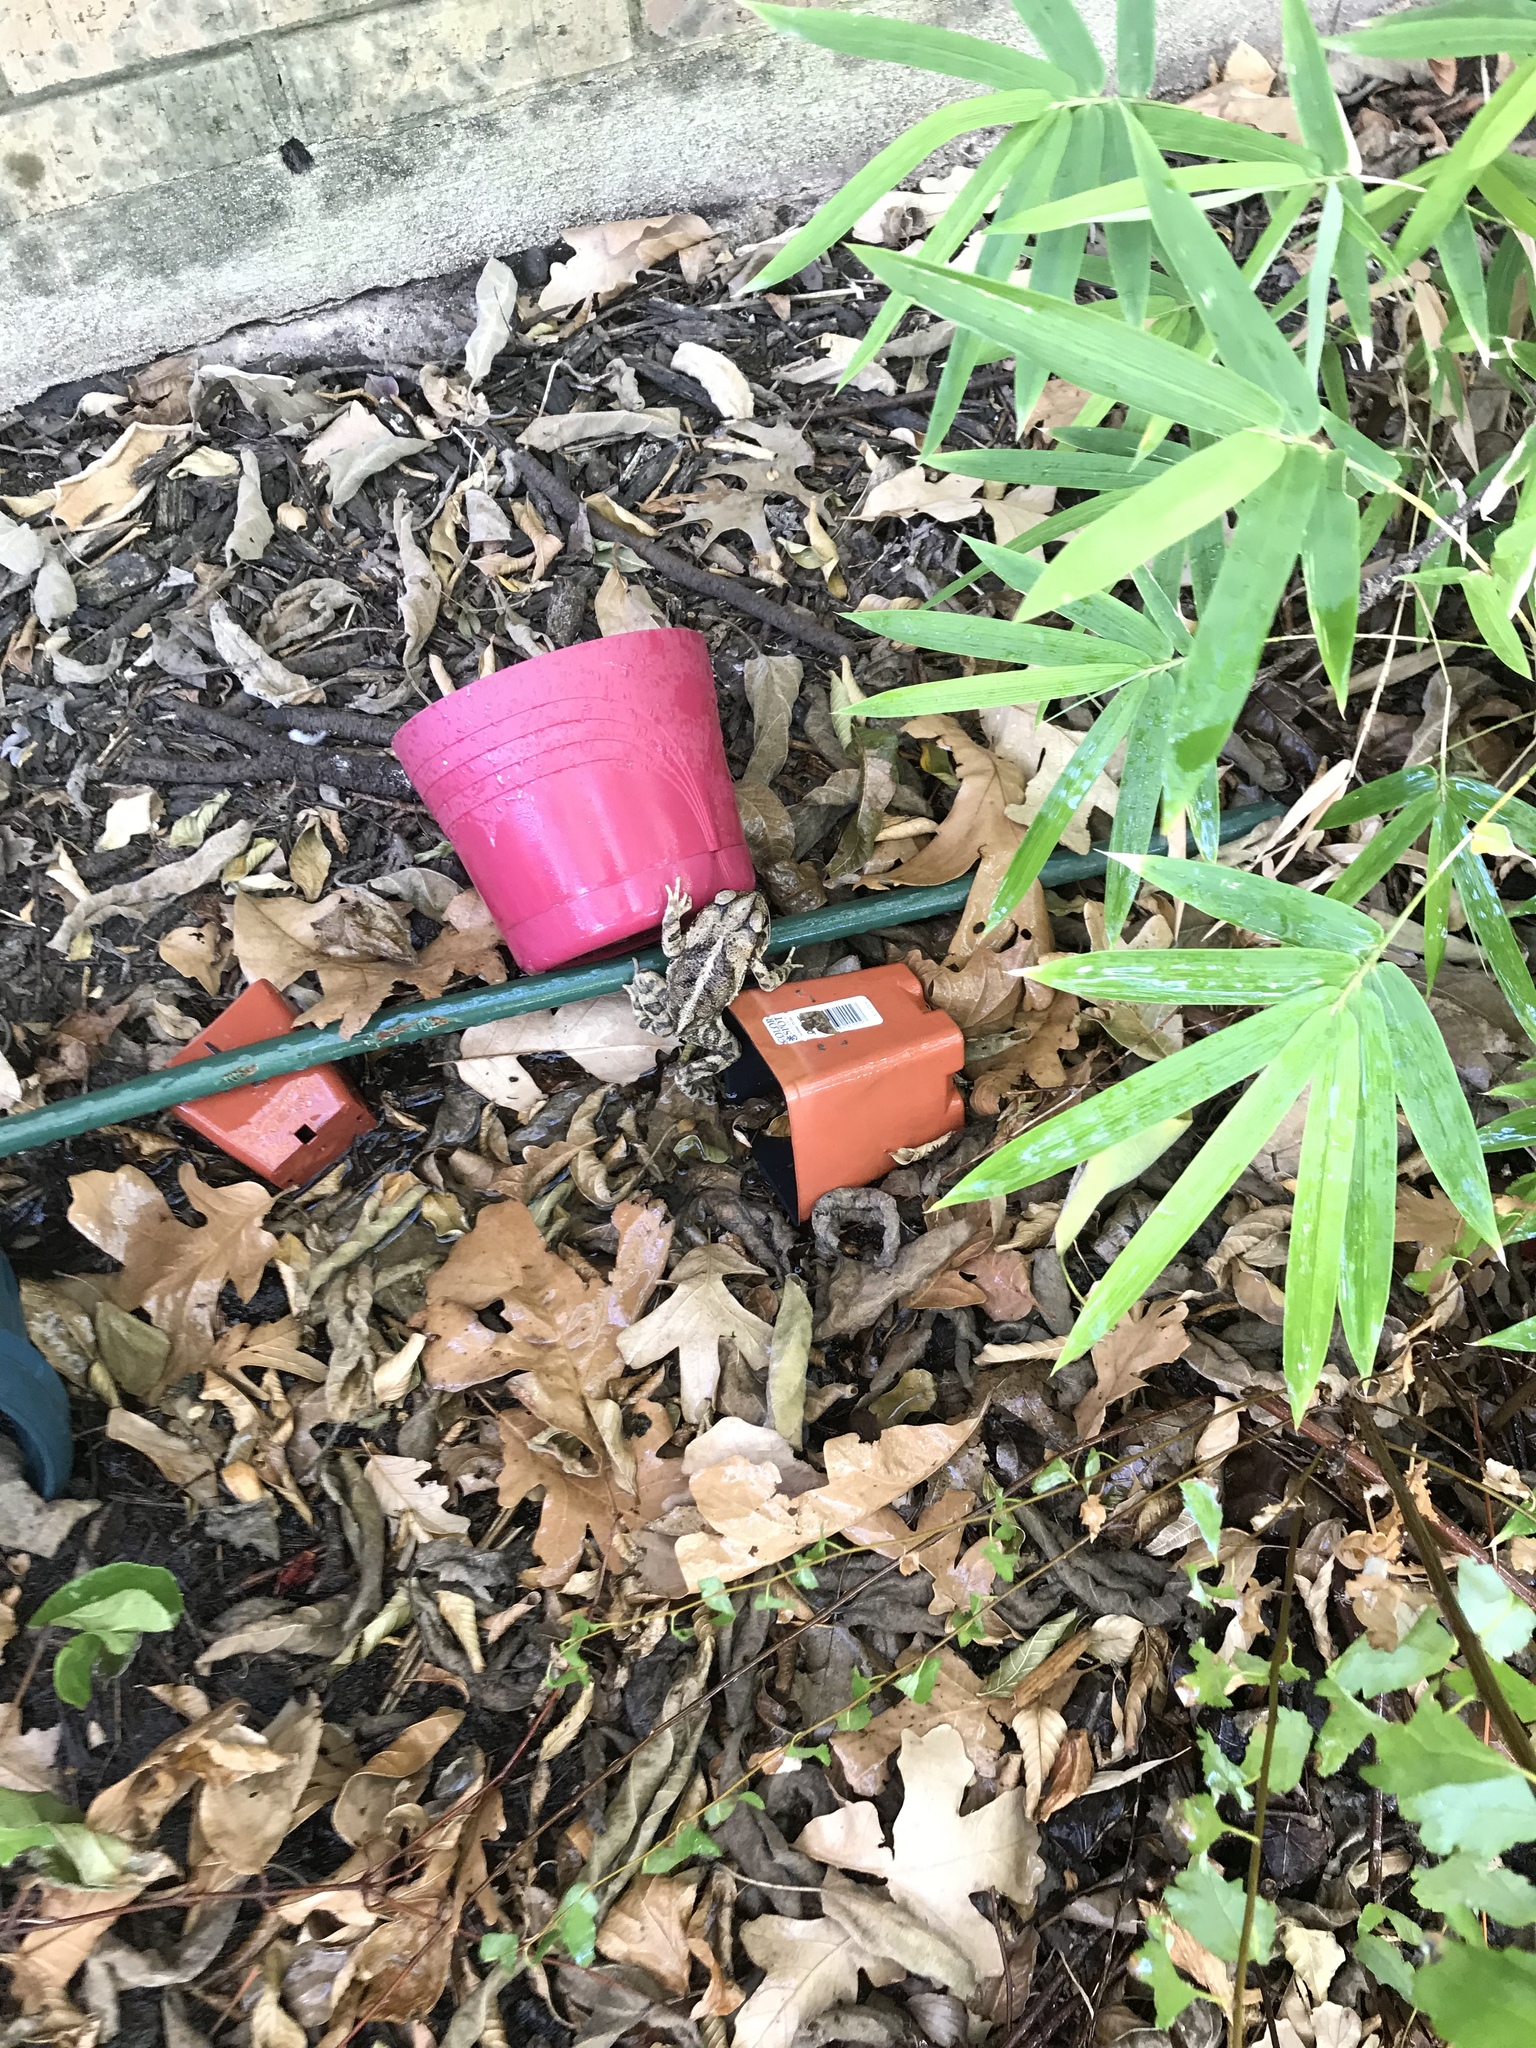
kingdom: Animalia
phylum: Chordata
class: Amphibia
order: Anura
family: Bufonidae
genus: Incilius
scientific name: Incilius nebulifer
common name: Gulf coast toad
